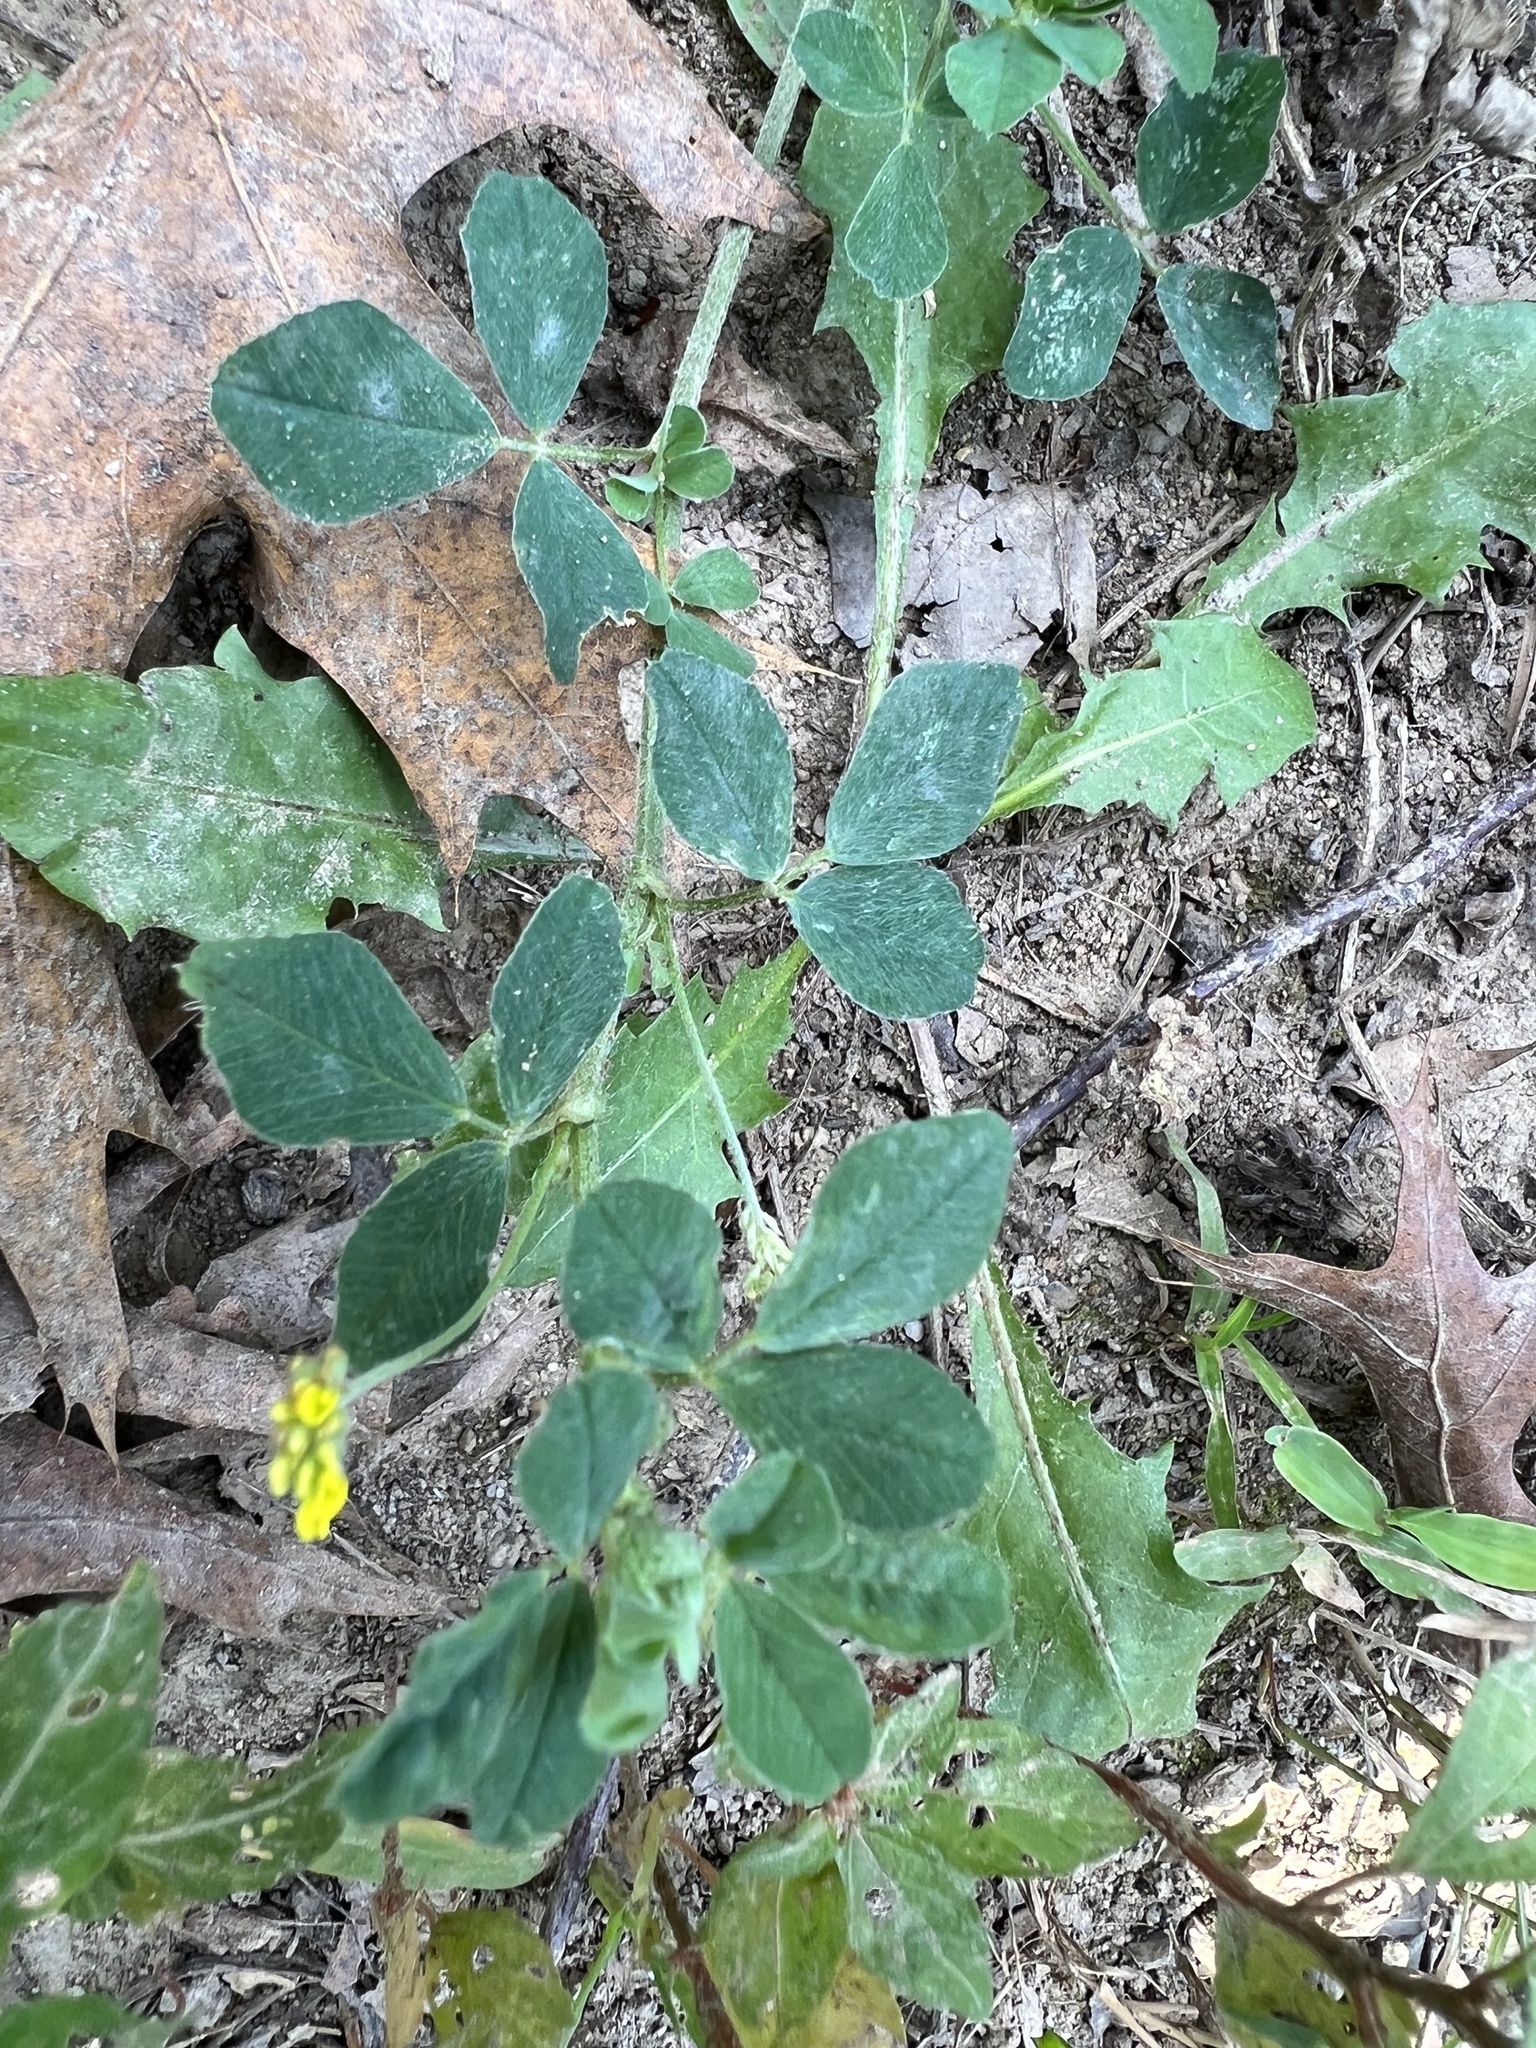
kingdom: Plantae
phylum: Tracheophyta
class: Magnoliopsida
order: Fabales
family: Fabaceae
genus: Medicago
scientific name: Medicago lupulina
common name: Black medick
